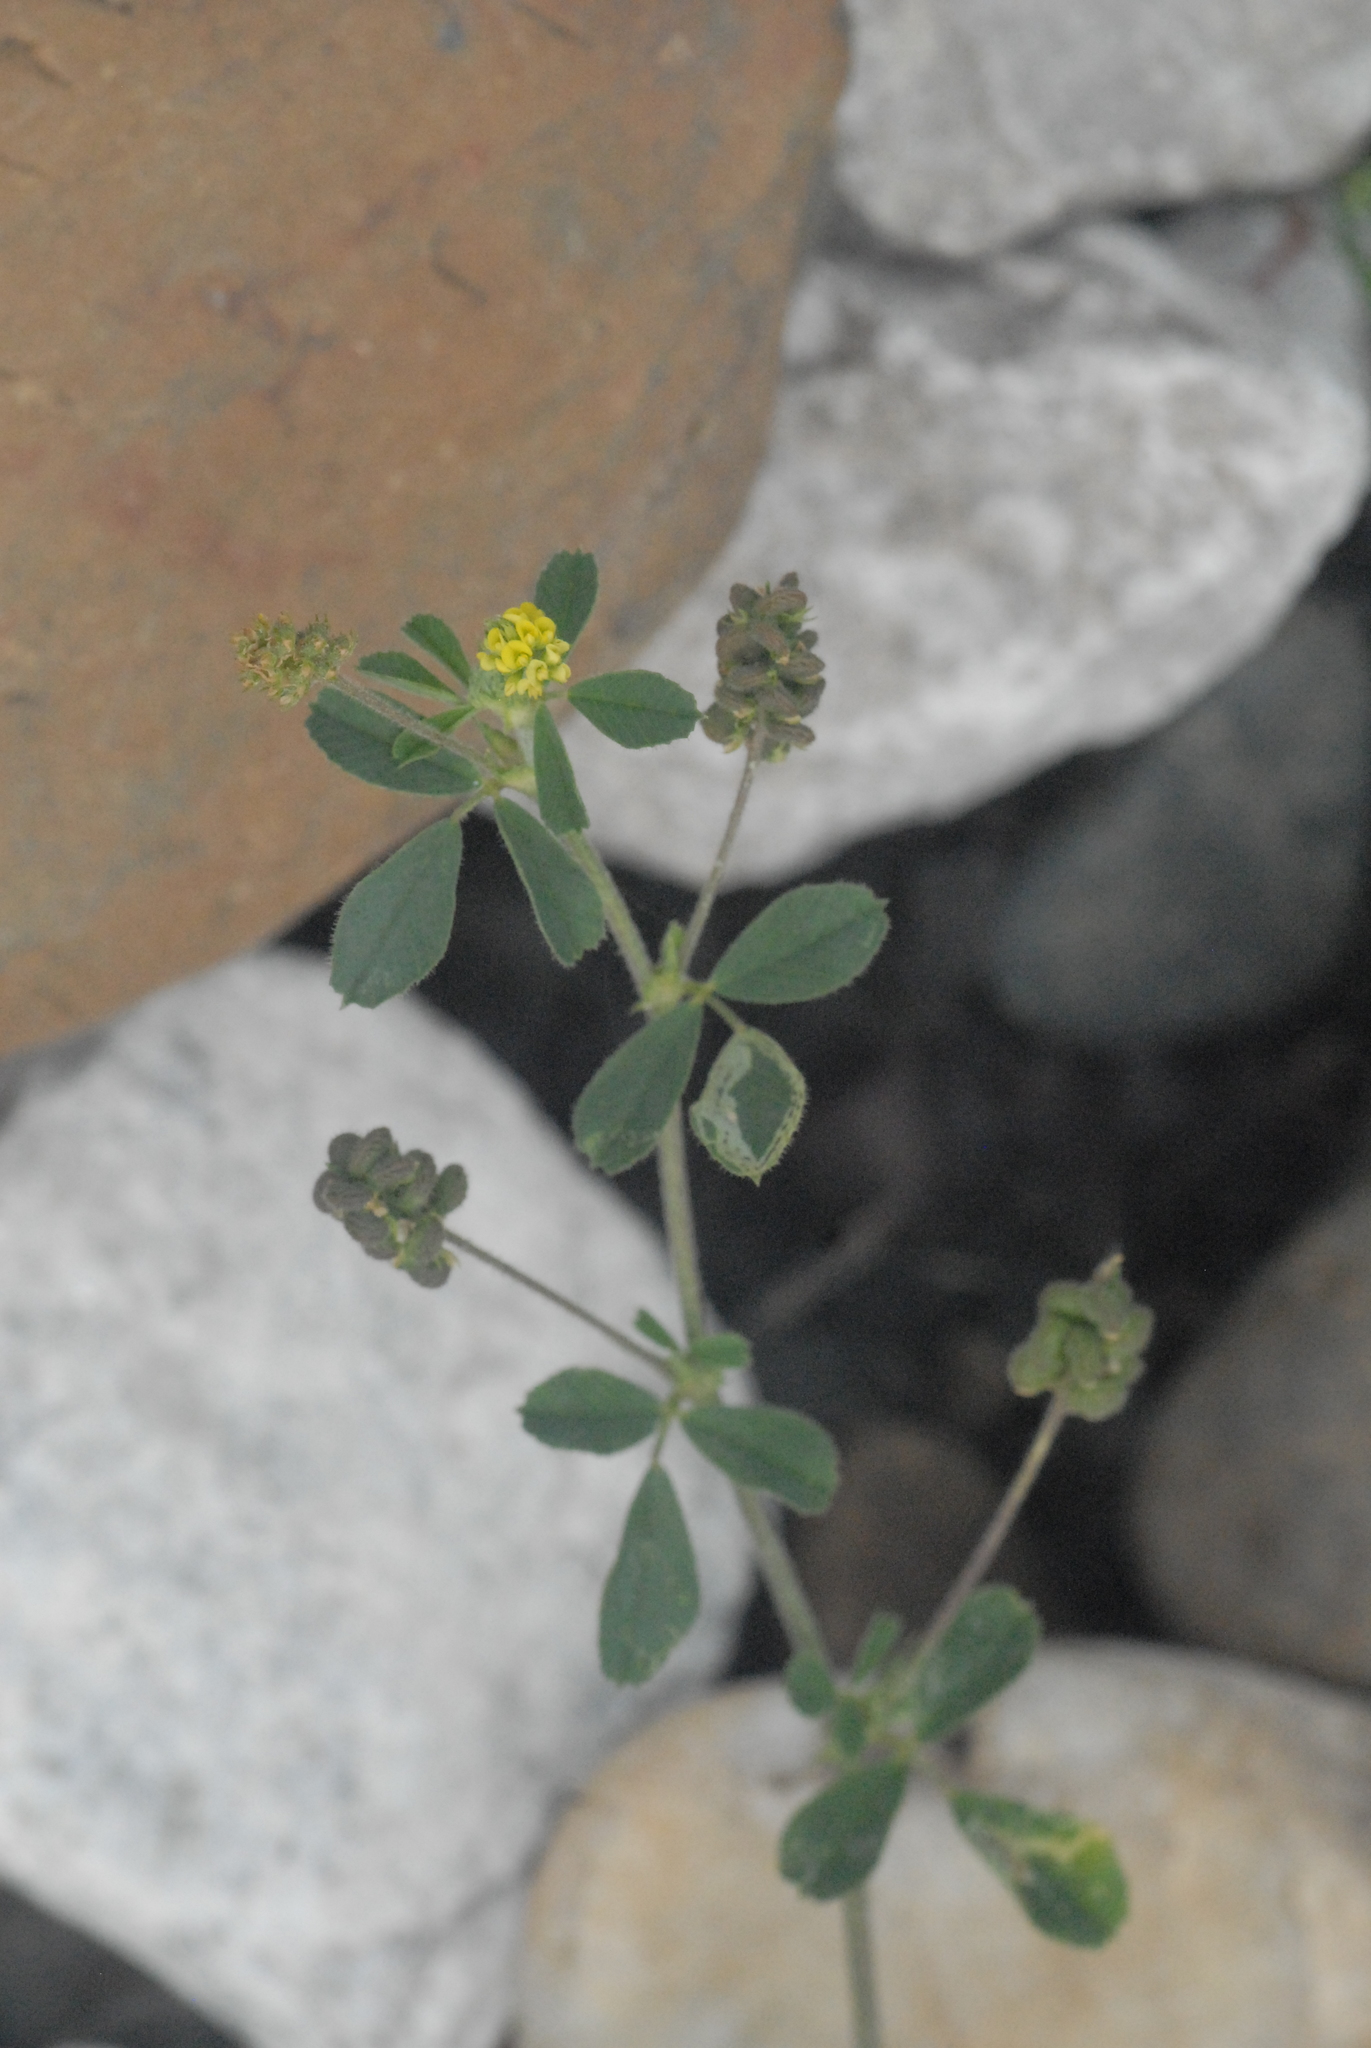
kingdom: Plantae
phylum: Tracheophyta
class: Magnoliopsida
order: Fabales
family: Fabaceae
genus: Medicago
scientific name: Medicago lupulina
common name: Black medick
